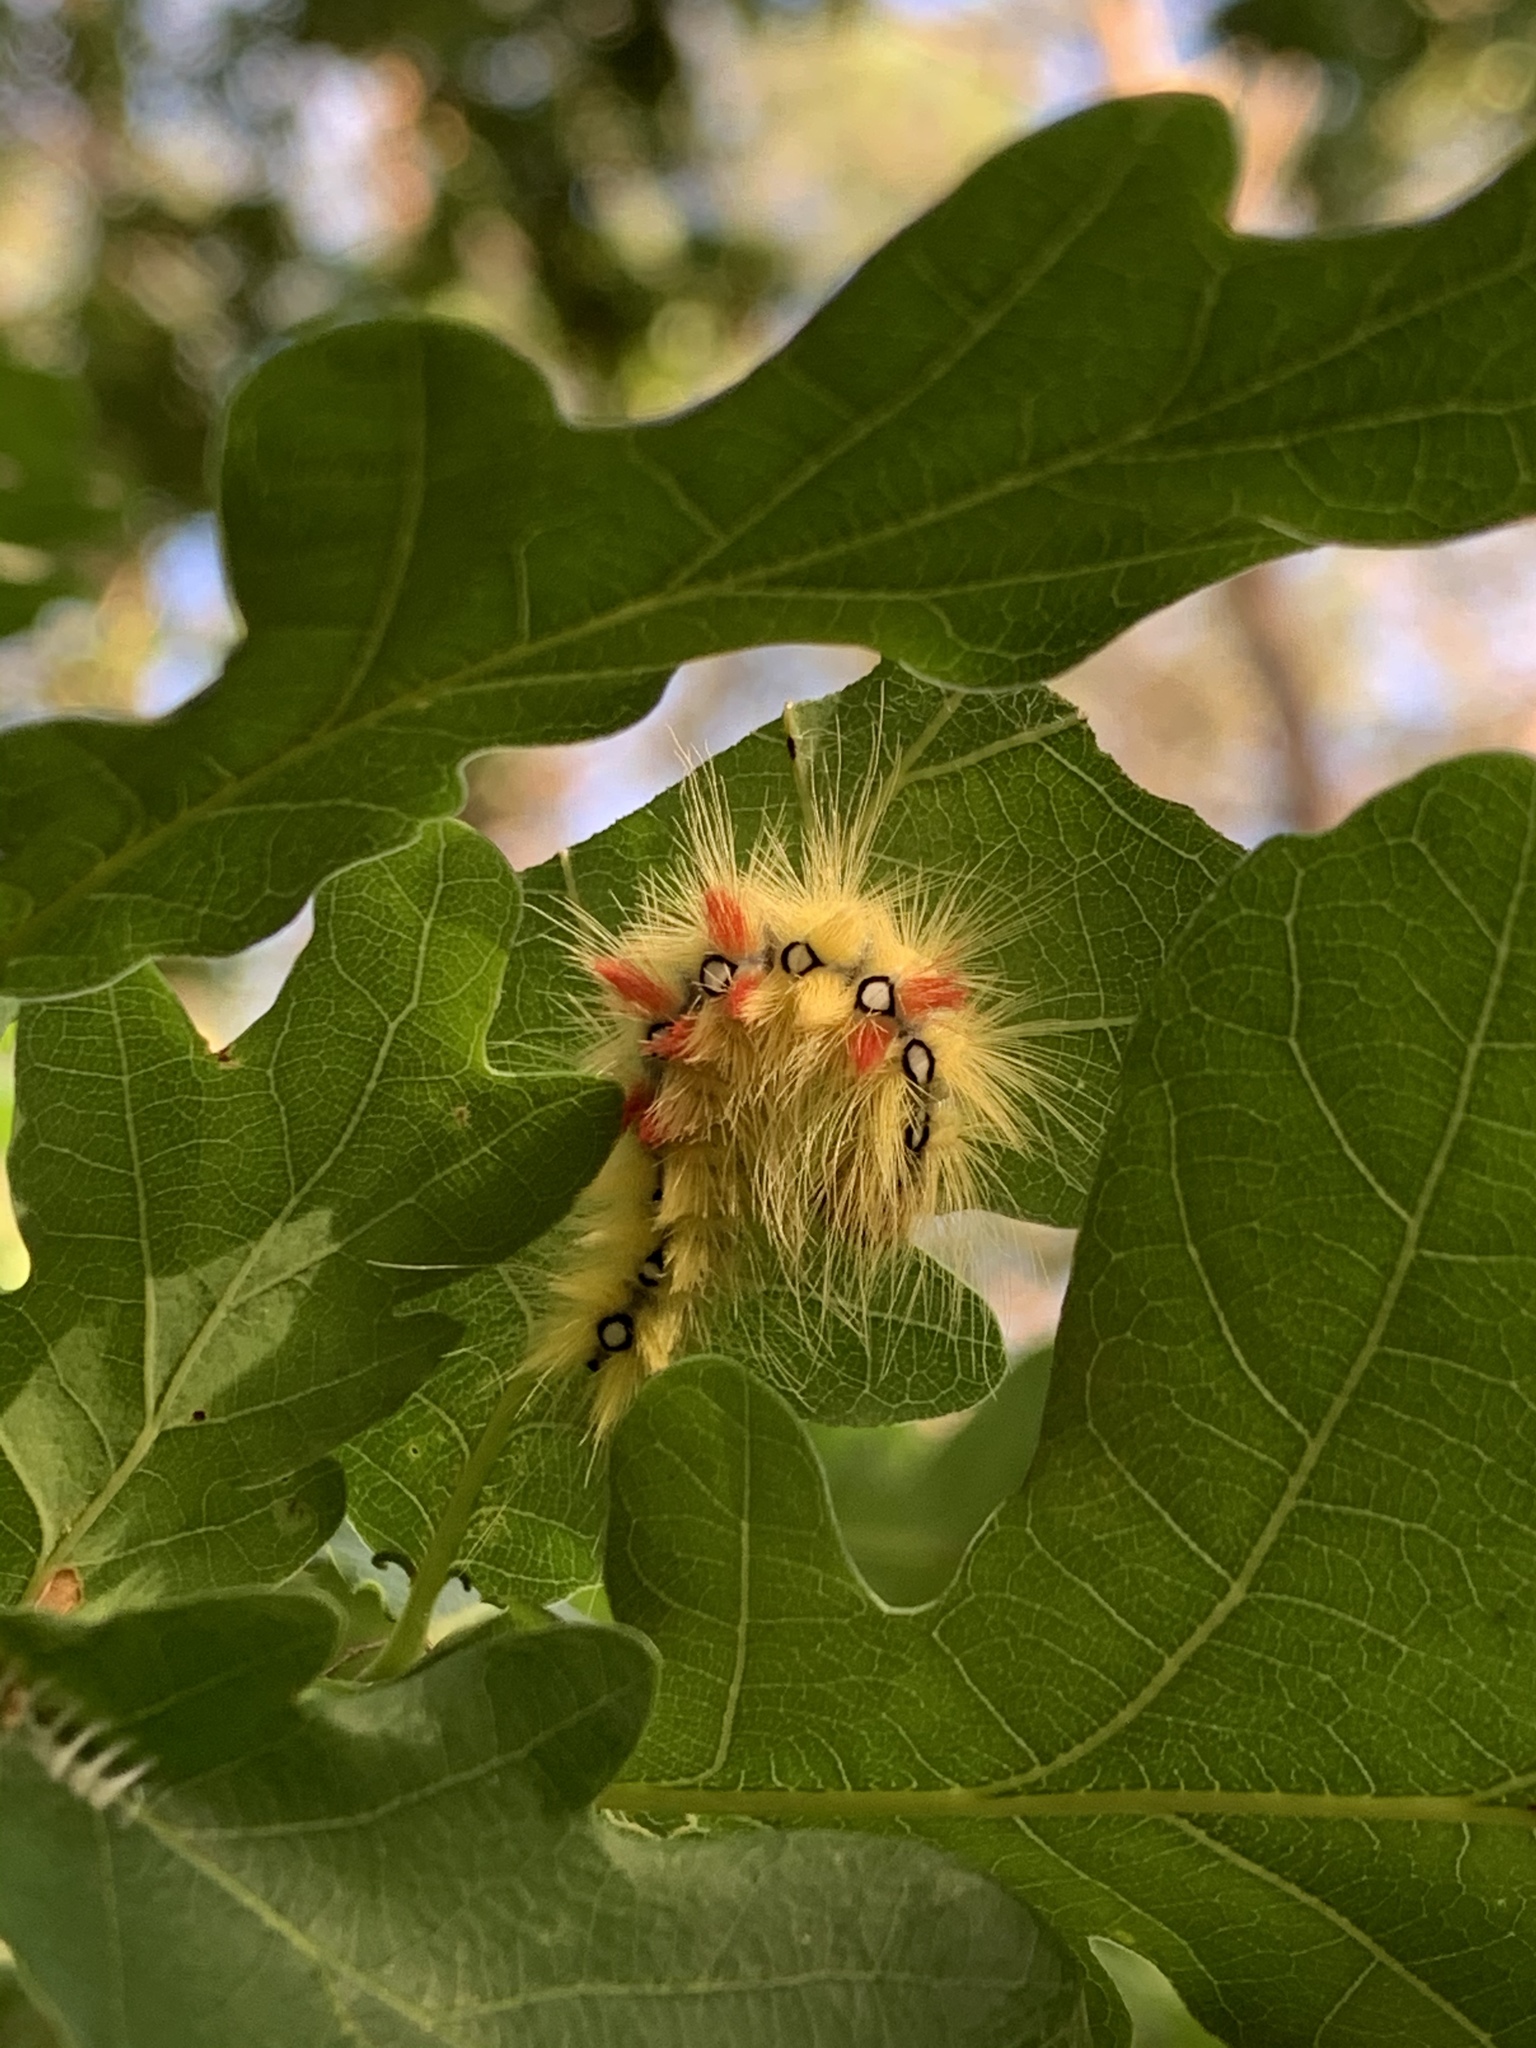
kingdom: Animalia
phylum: Arthropoda
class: Insecta
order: Lepidoptera
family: Noctuidae
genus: Acronicta
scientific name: Acronicta aceris
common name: Sycamore
